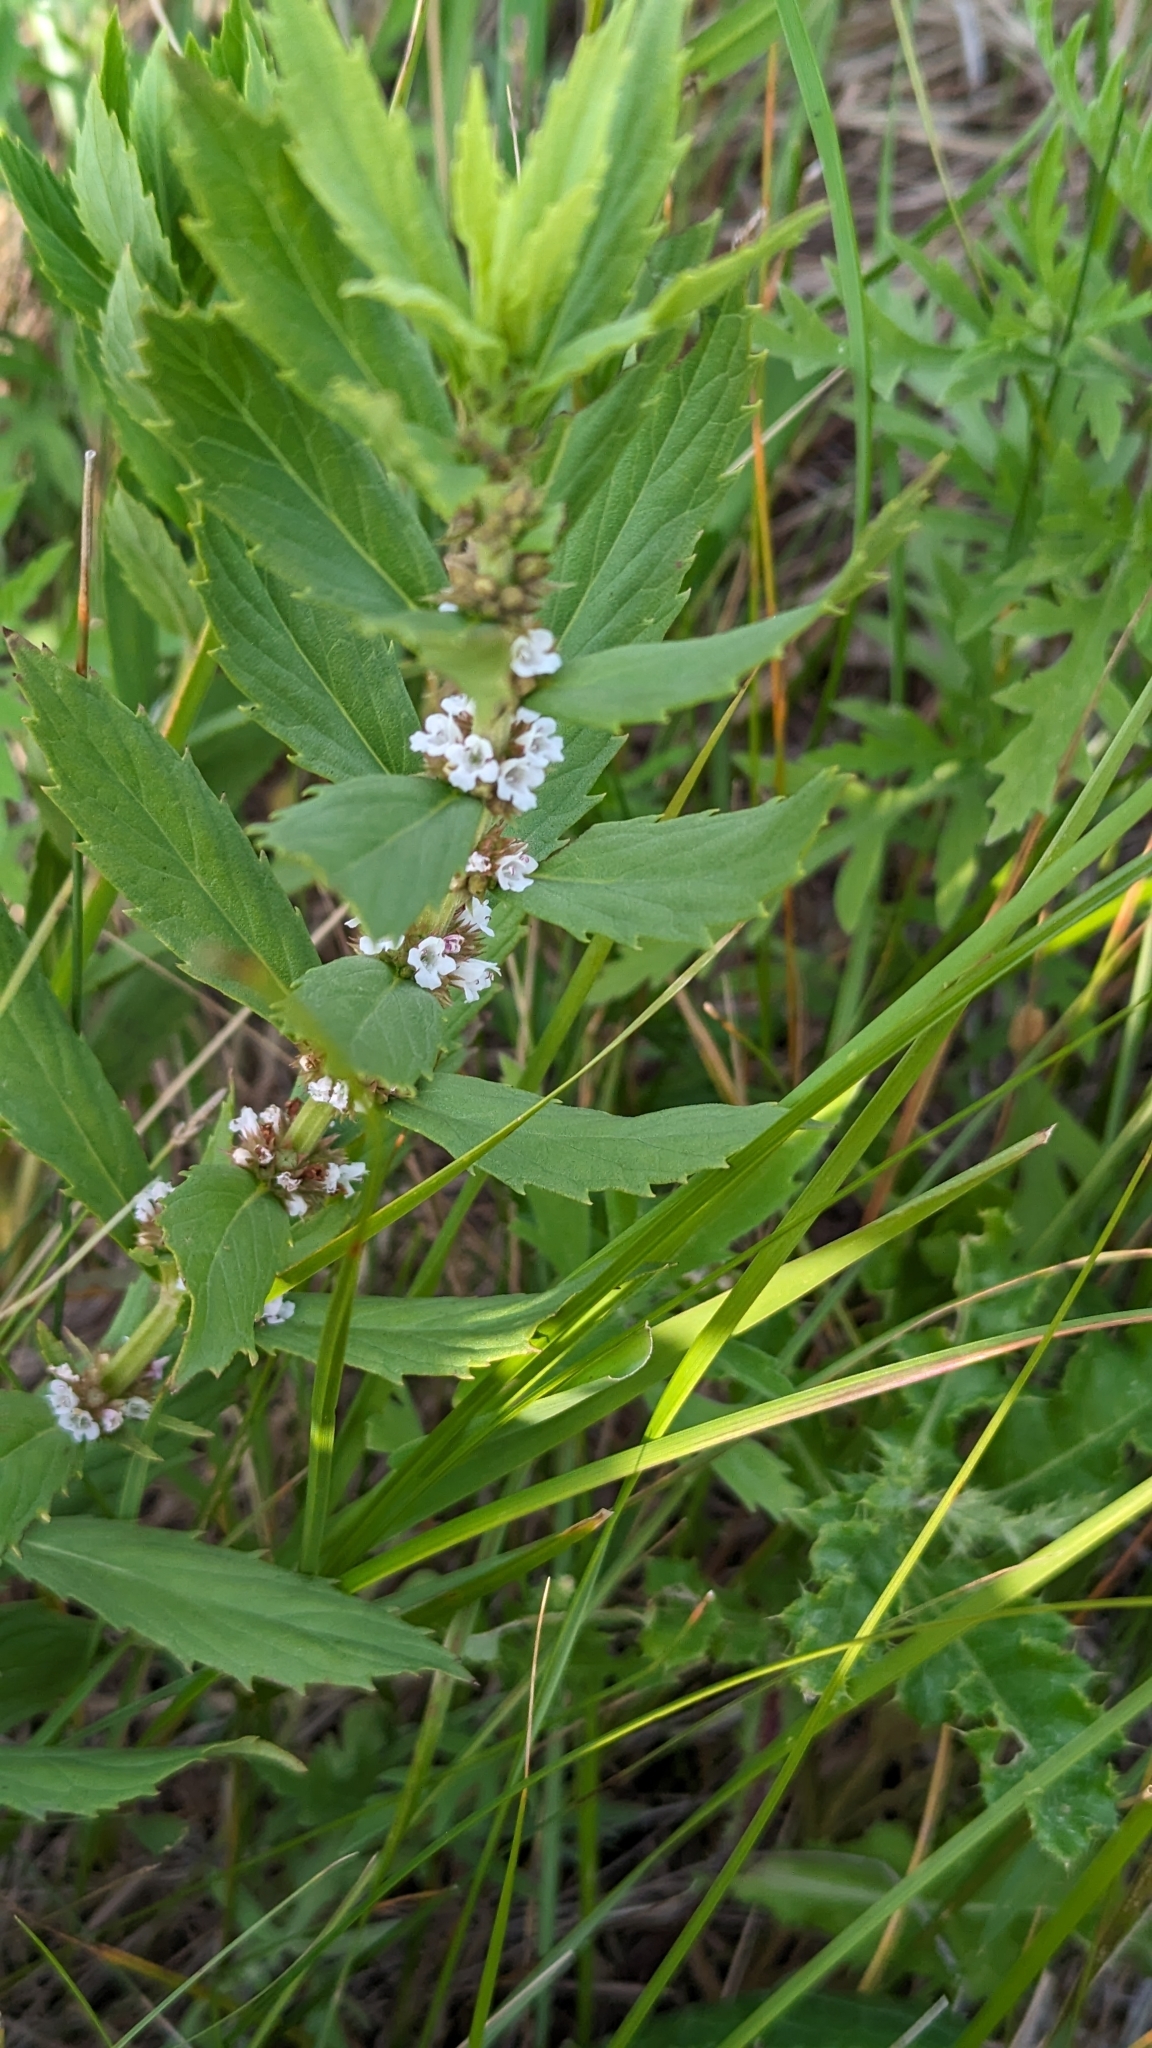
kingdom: Plantae
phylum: Tracheophyta
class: Magnoliopsida
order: Lamiales
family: Lamiaceae
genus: Lycopus
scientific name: Lycopus asper
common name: Rough water-horehound
